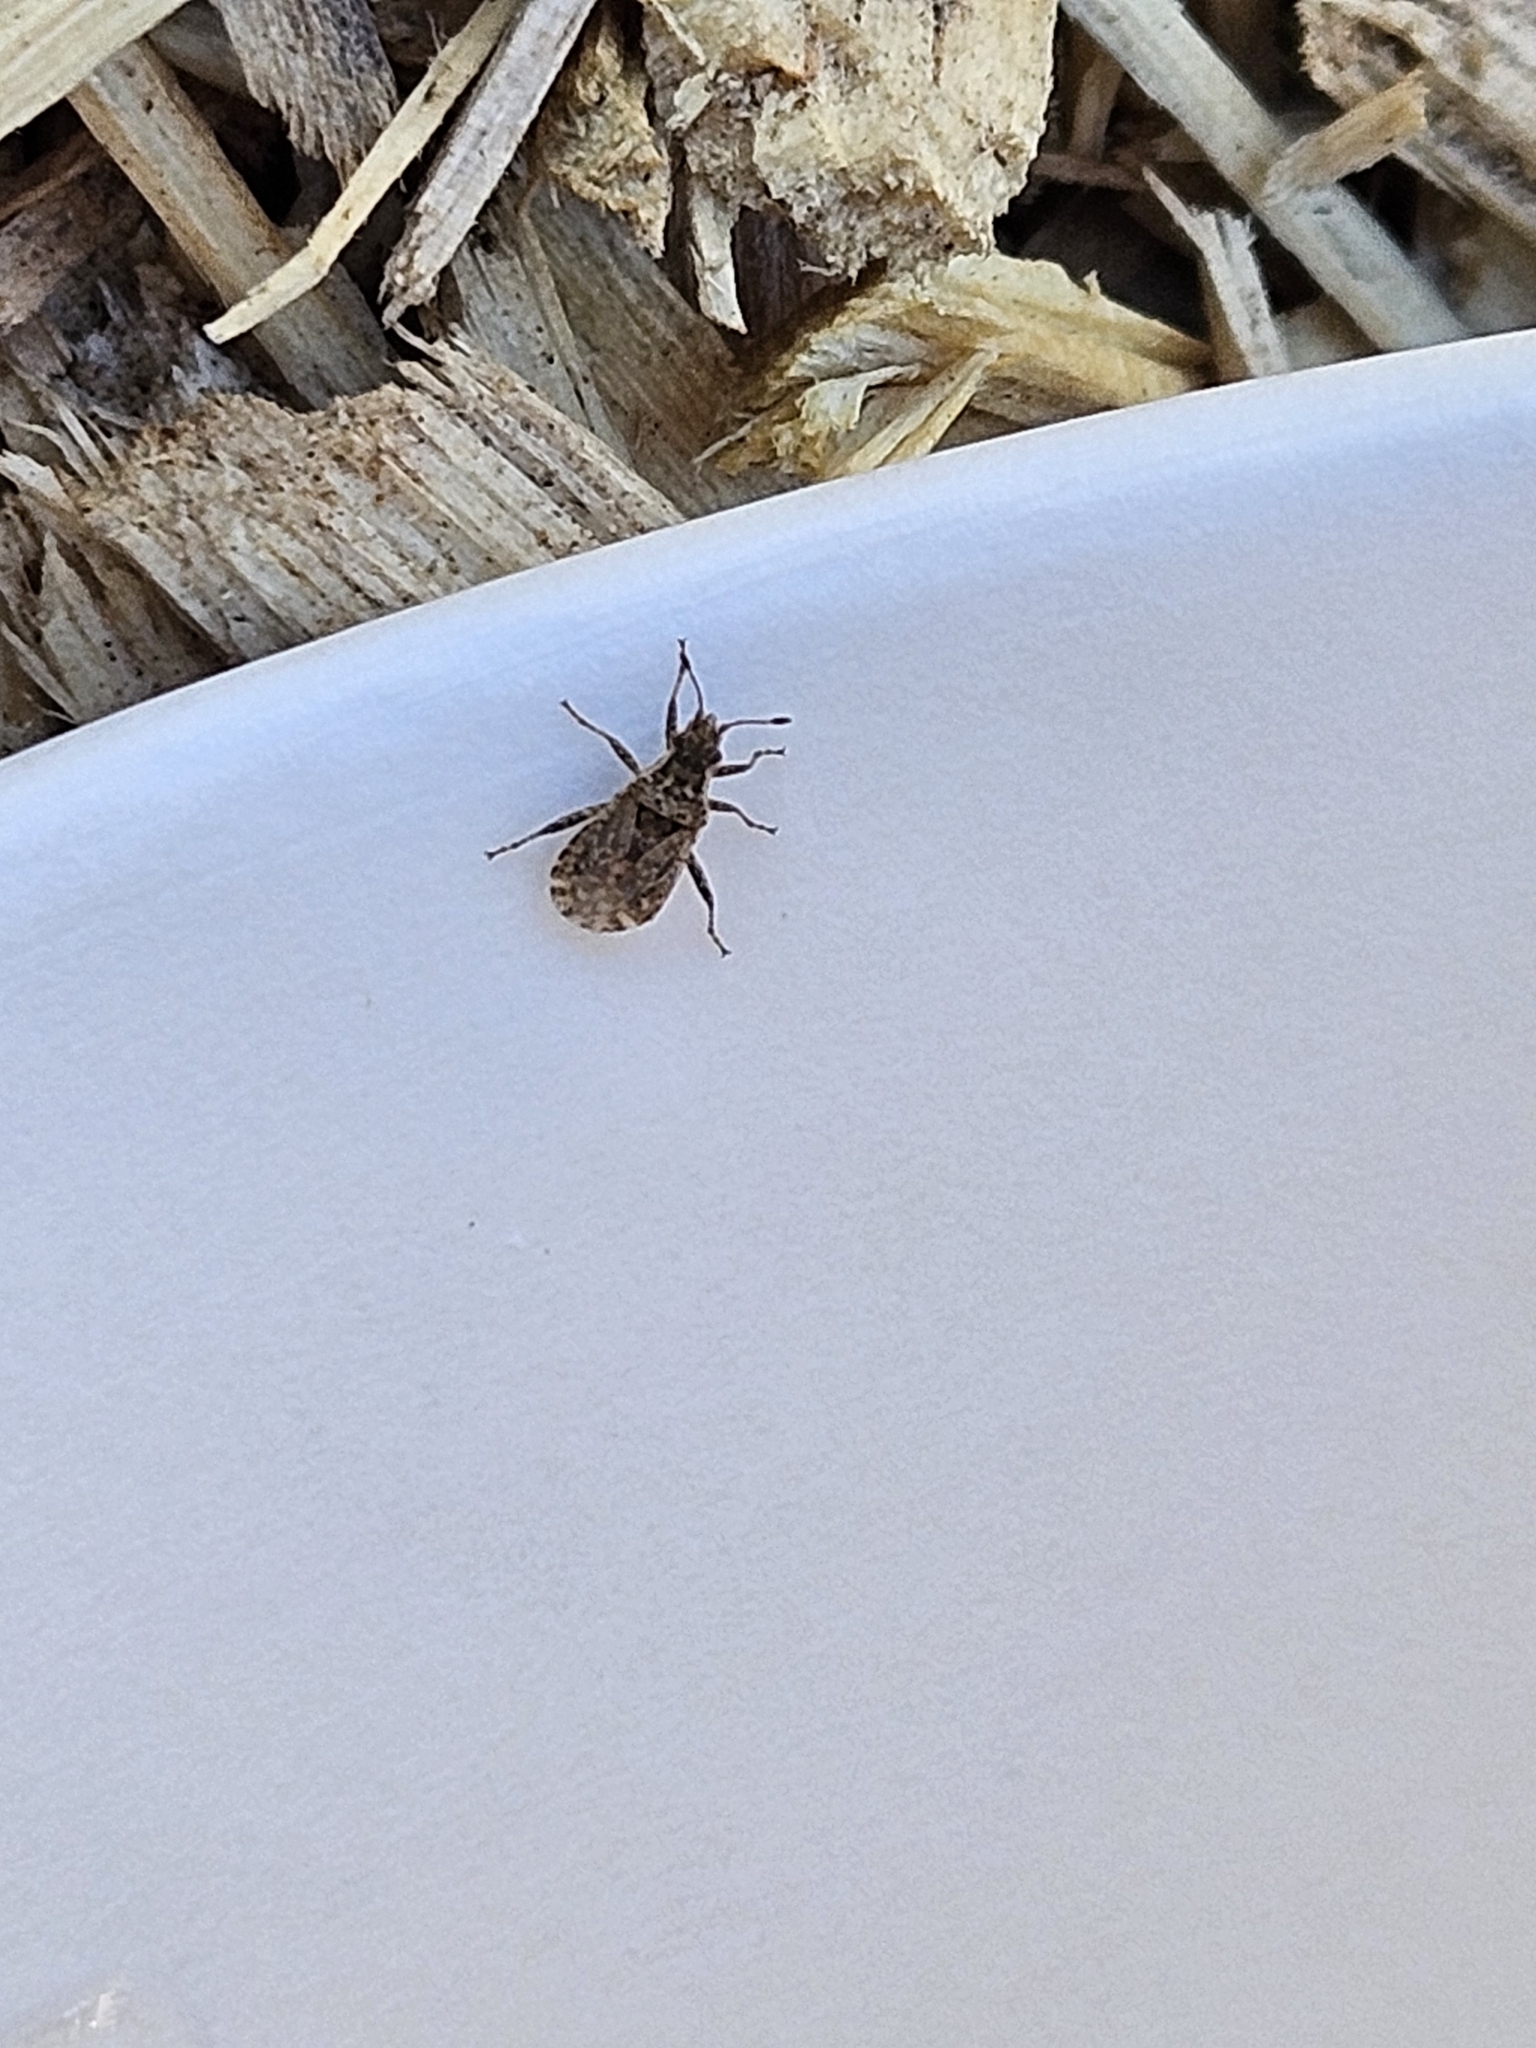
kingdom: Animalia
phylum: Arthropoda
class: Insecta
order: Hemiptera
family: Rhopalidae
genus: Aufeius
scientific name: Aufeius impressicollis
